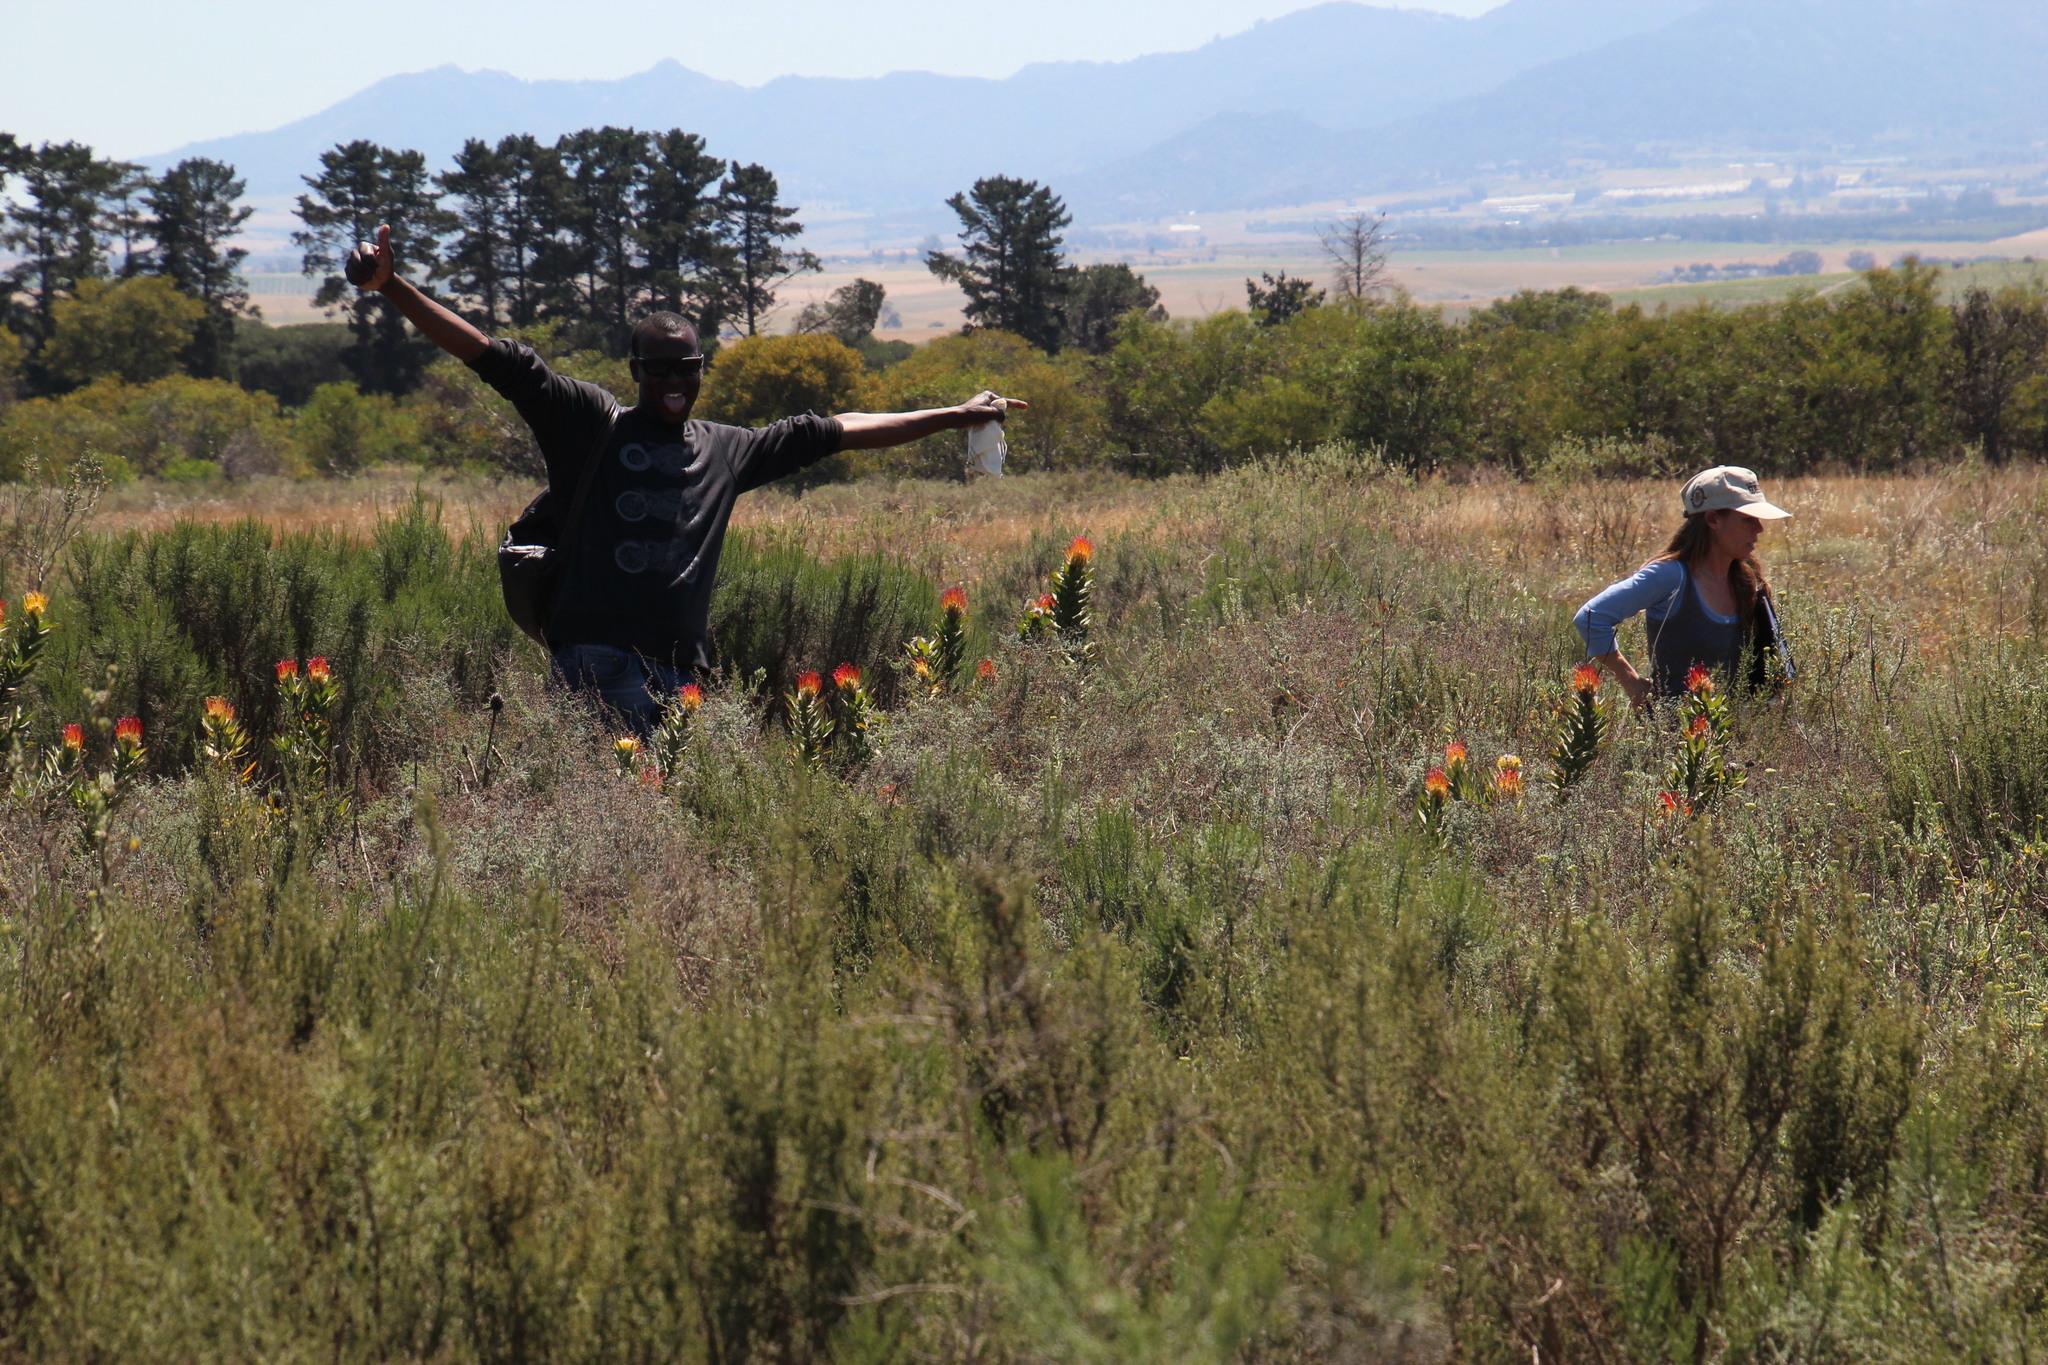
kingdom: Plantae
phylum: Tracheophyta
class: Magnoliopsida
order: Proteales
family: Proteaceae
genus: Leucospermum
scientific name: Leucospermum grandiflorum
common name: Grey-leaf fountain pincushion
